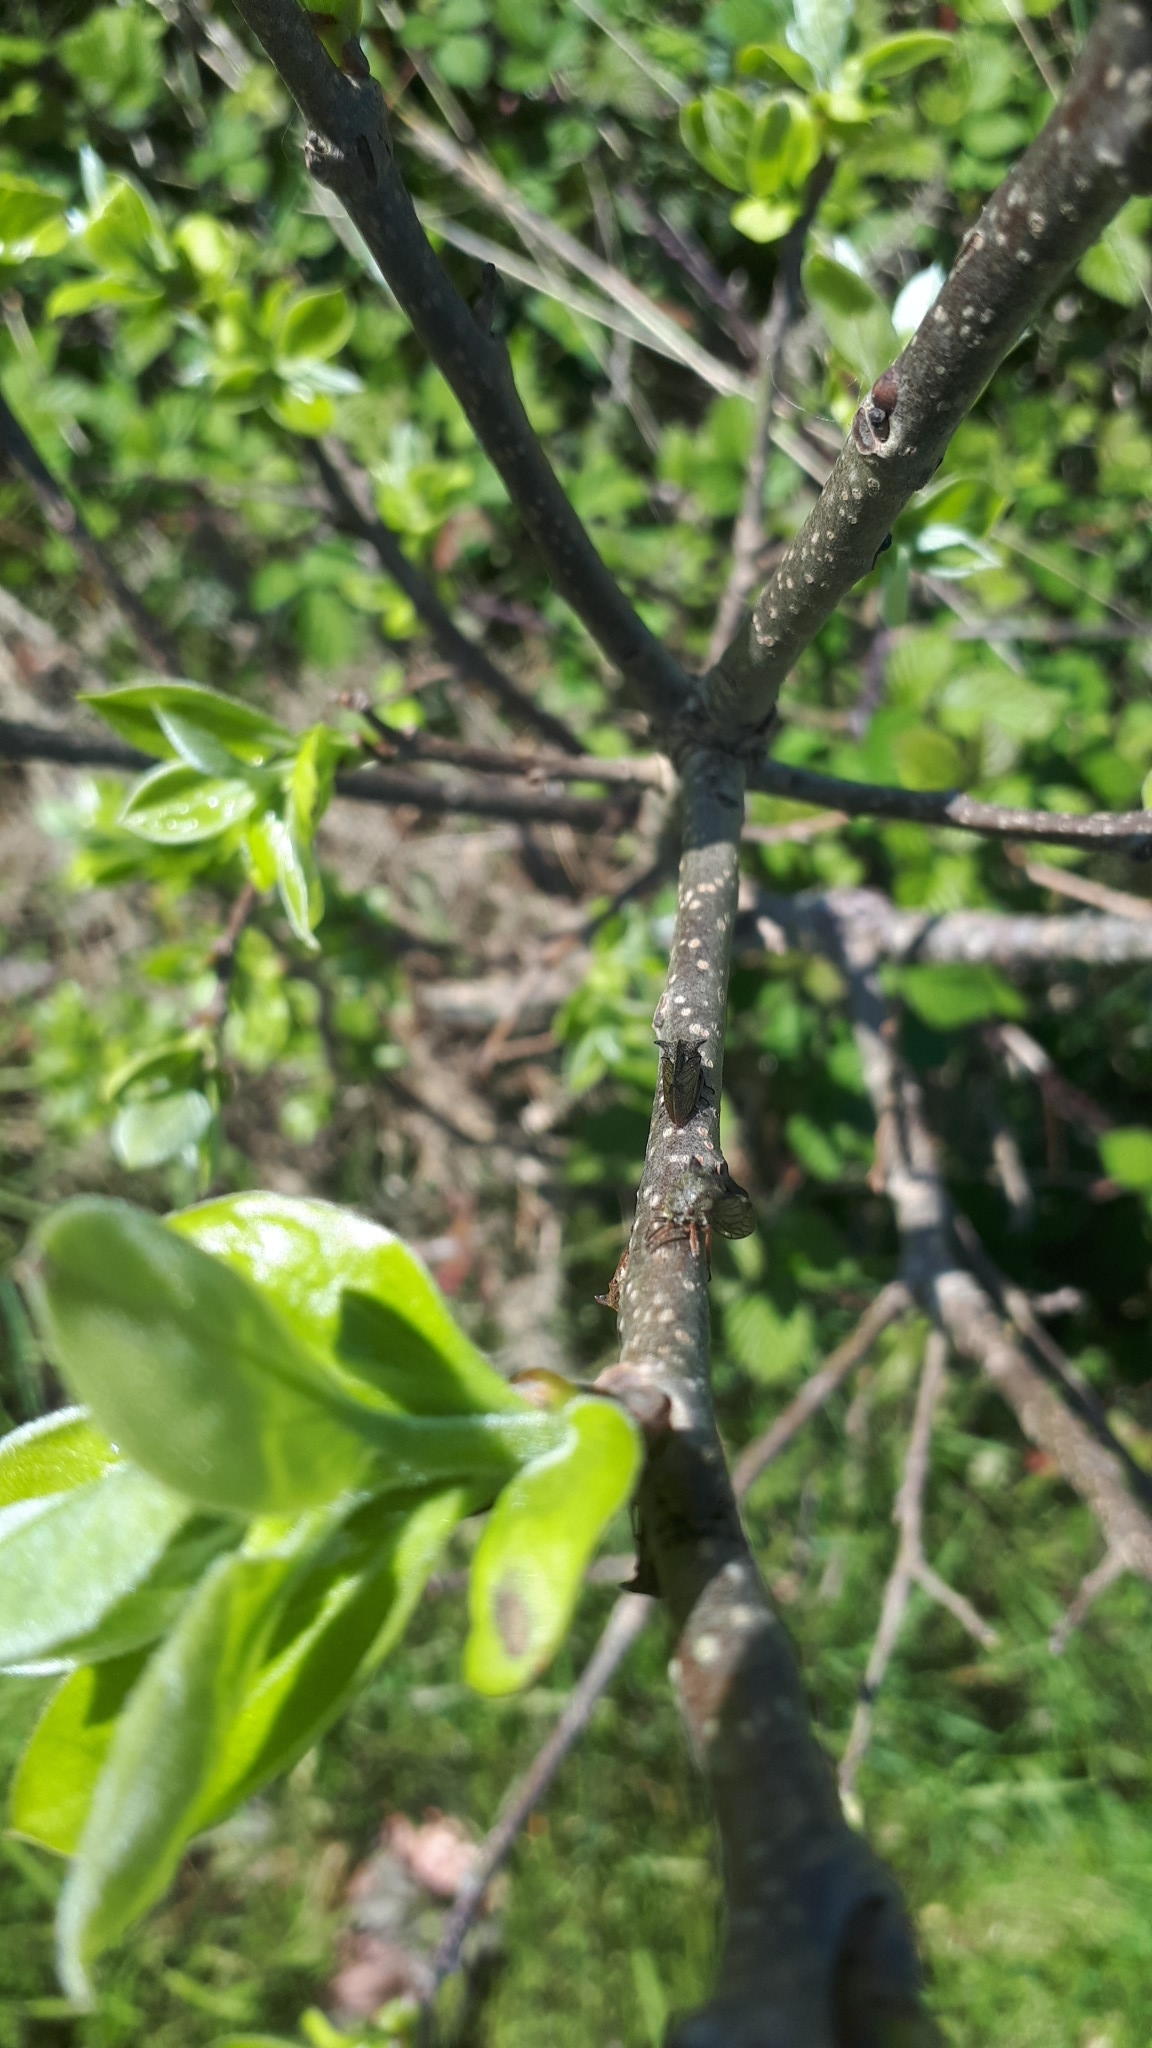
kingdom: Animalia
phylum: Arthropoda
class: Insecta
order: Hemiptera
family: Membracidae
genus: Centrotus
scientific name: Centrotus cornuta
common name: Treehopper
